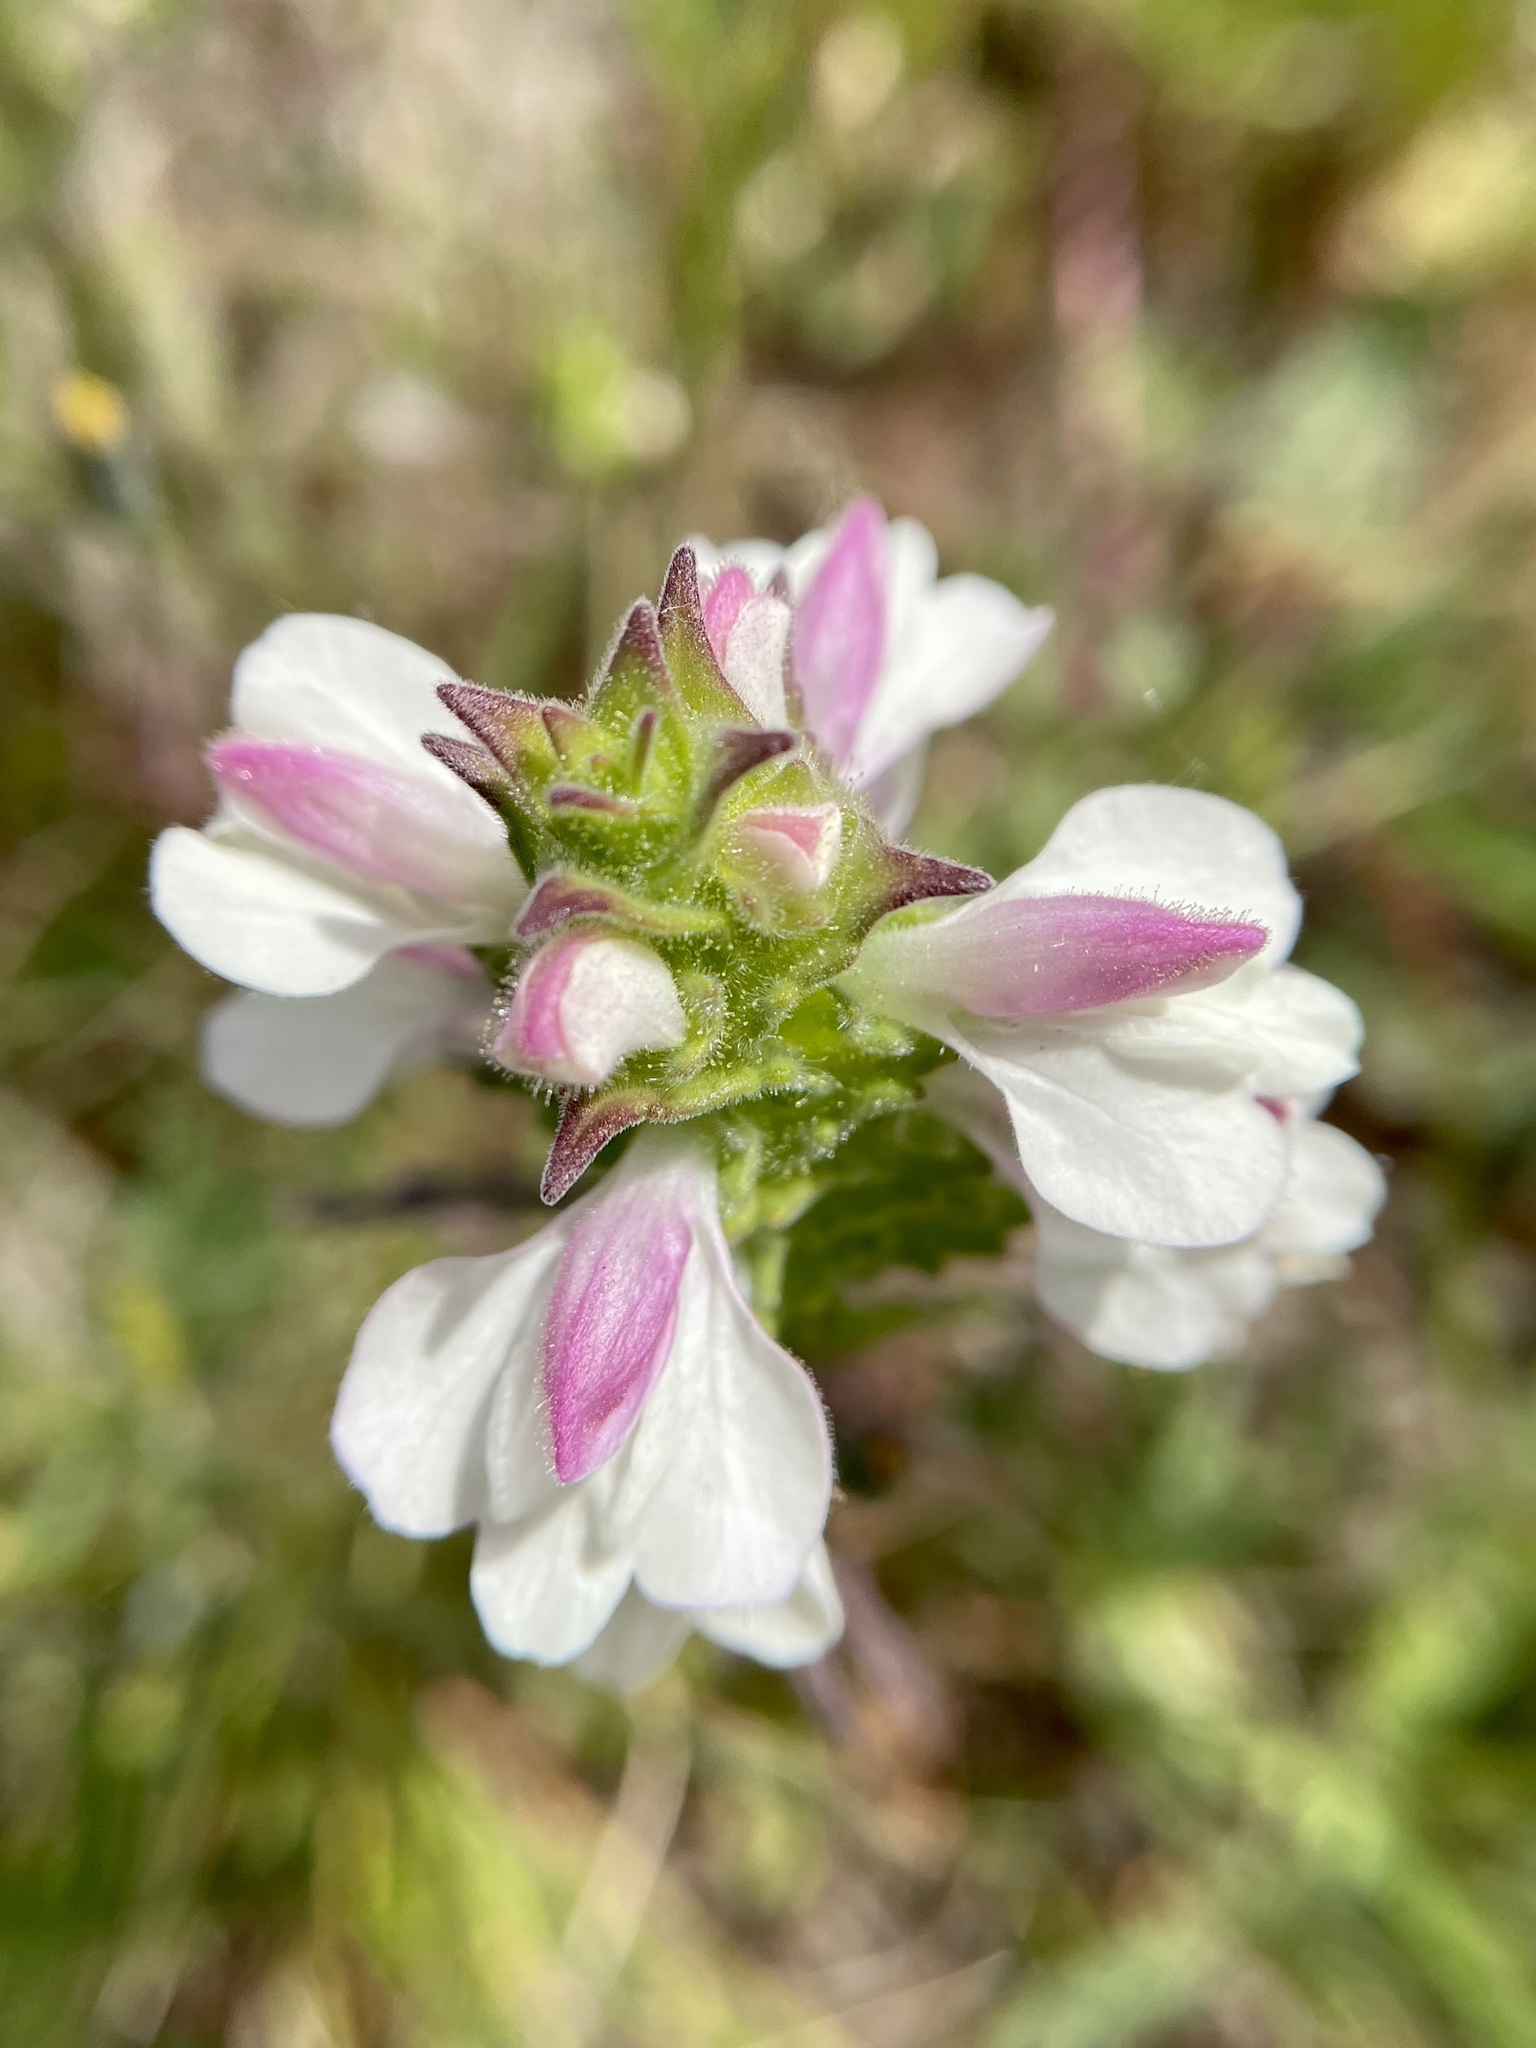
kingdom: Plantae
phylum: Tracheophyta
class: Magnoliopsida
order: Lamiales
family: Orobanchaceae
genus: Bellardia
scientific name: Bellardia trixago
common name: Mediterranean lineseed
